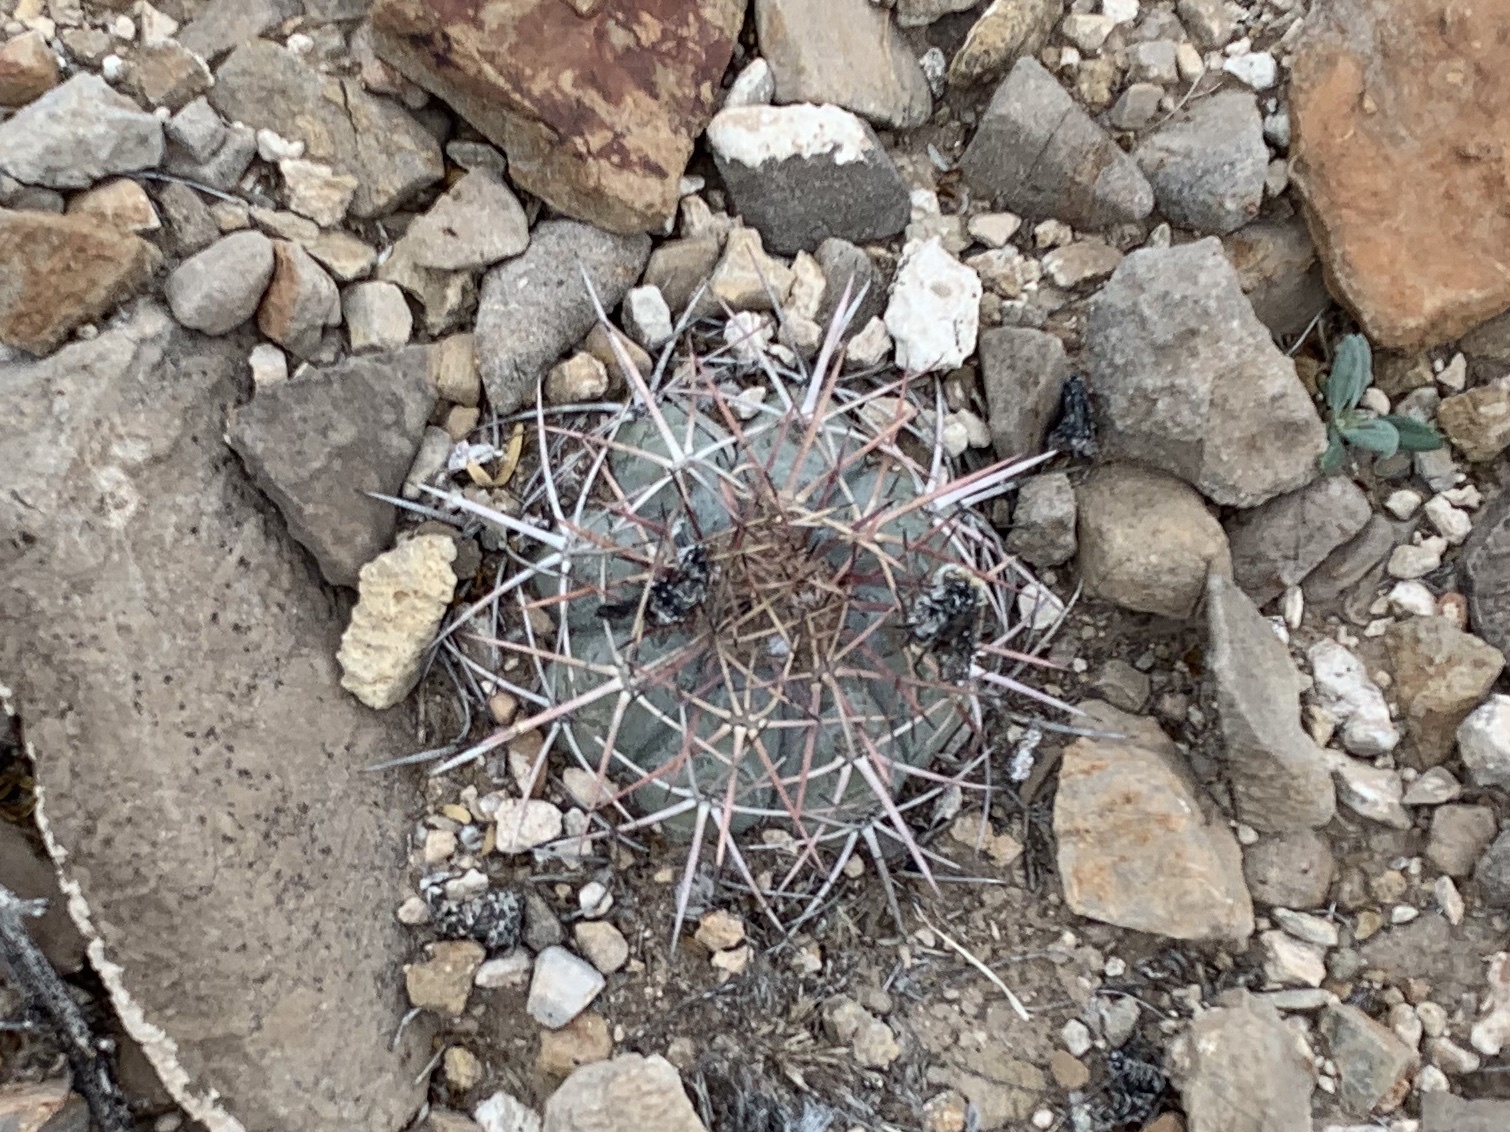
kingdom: Plantae
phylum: Tracheophyta
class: Magnoliopsida
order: Caryophyllales
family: Cactaceae
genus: Echinocactus
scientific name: Echinocactus horizonthalonius
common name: Devilshead
